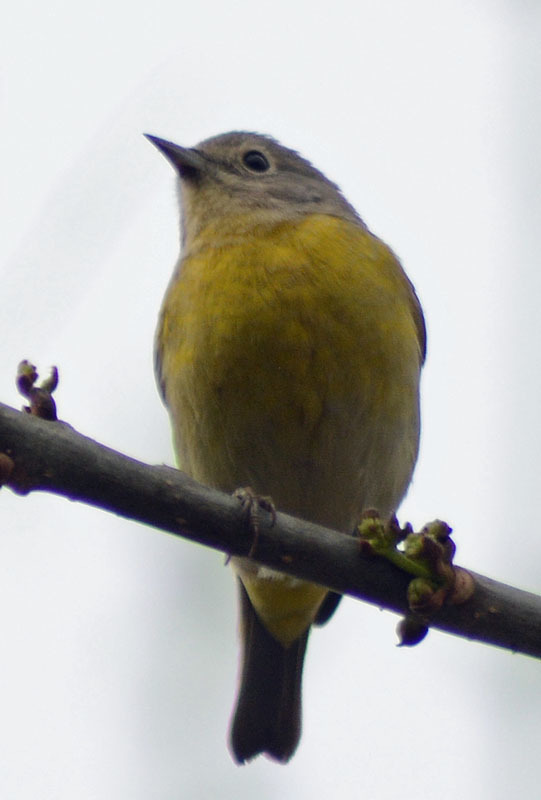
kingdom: Animalia
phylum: Chordata
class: Aves
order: Passeriformes
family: Parulidae
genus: Leiothlypis
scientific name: Leiothlypis ruficapilla
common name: Nashville warbler
